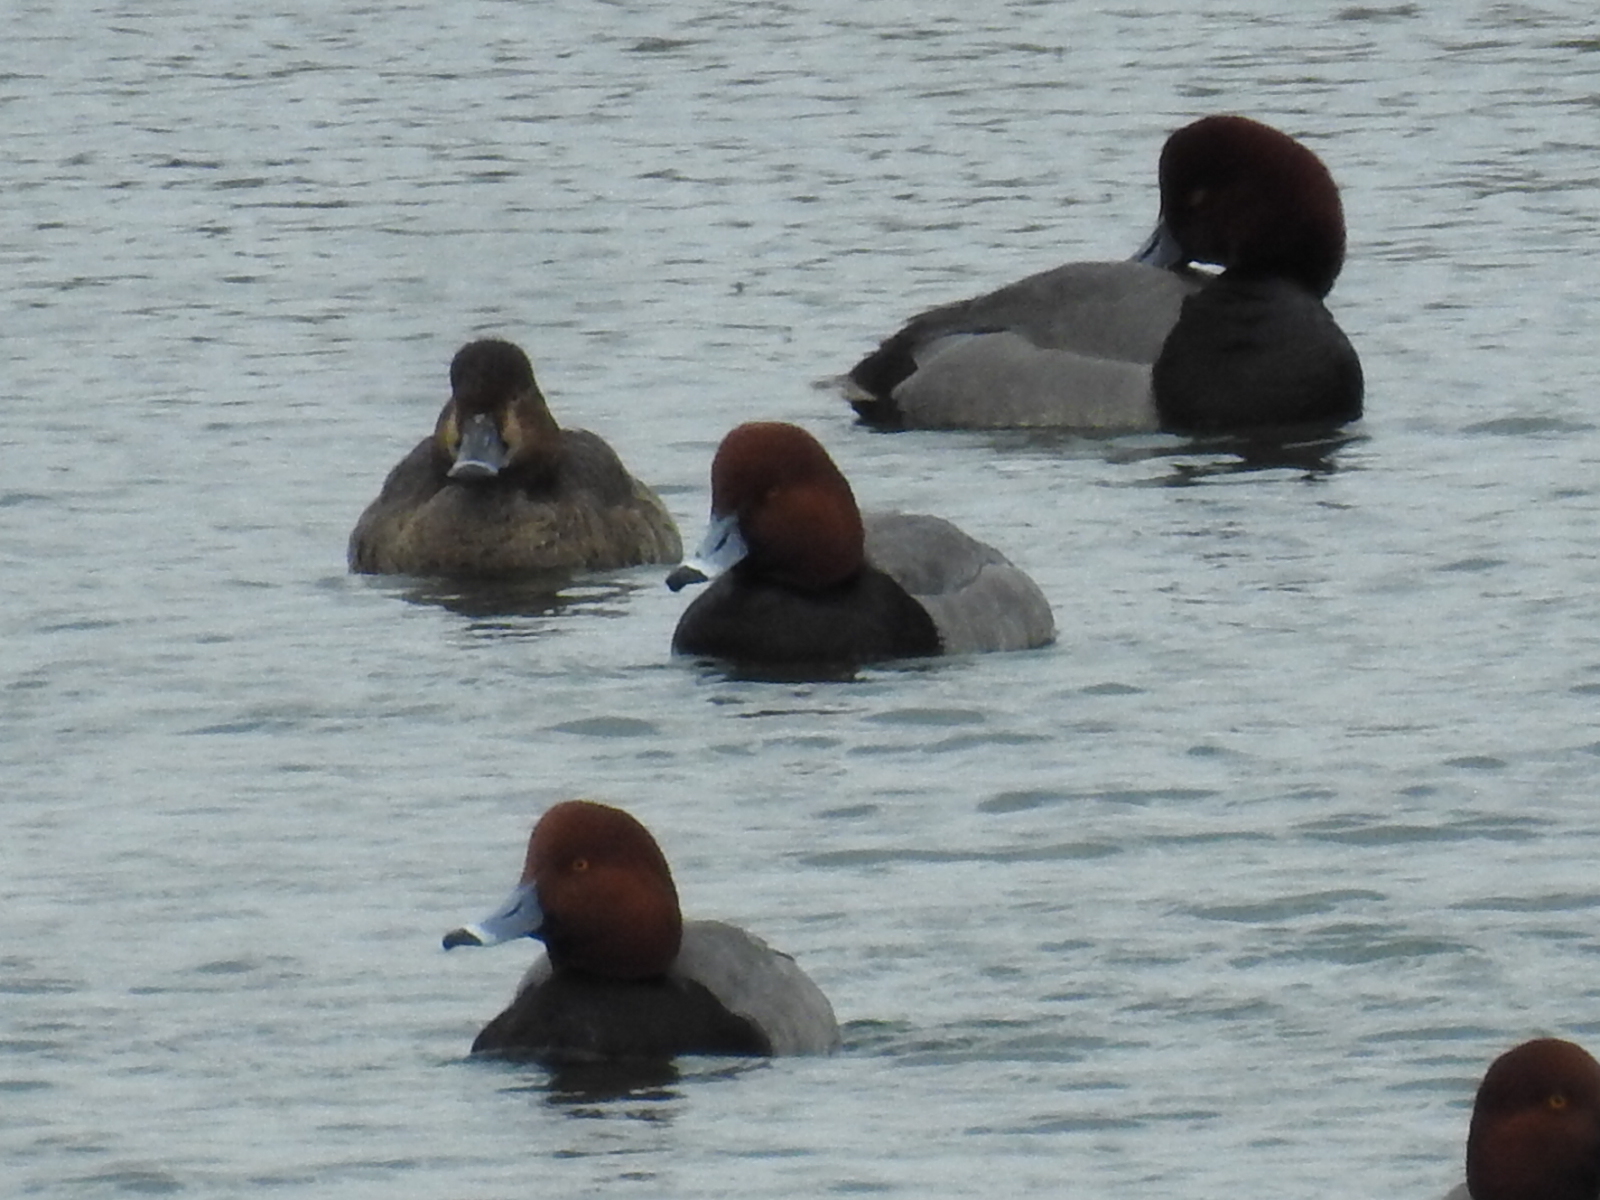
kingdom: Animalia
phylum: Chordata
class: Aves
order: Anseriformes
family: Anatidae
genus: Aythya
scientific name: Aythya americana
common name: Redhead
